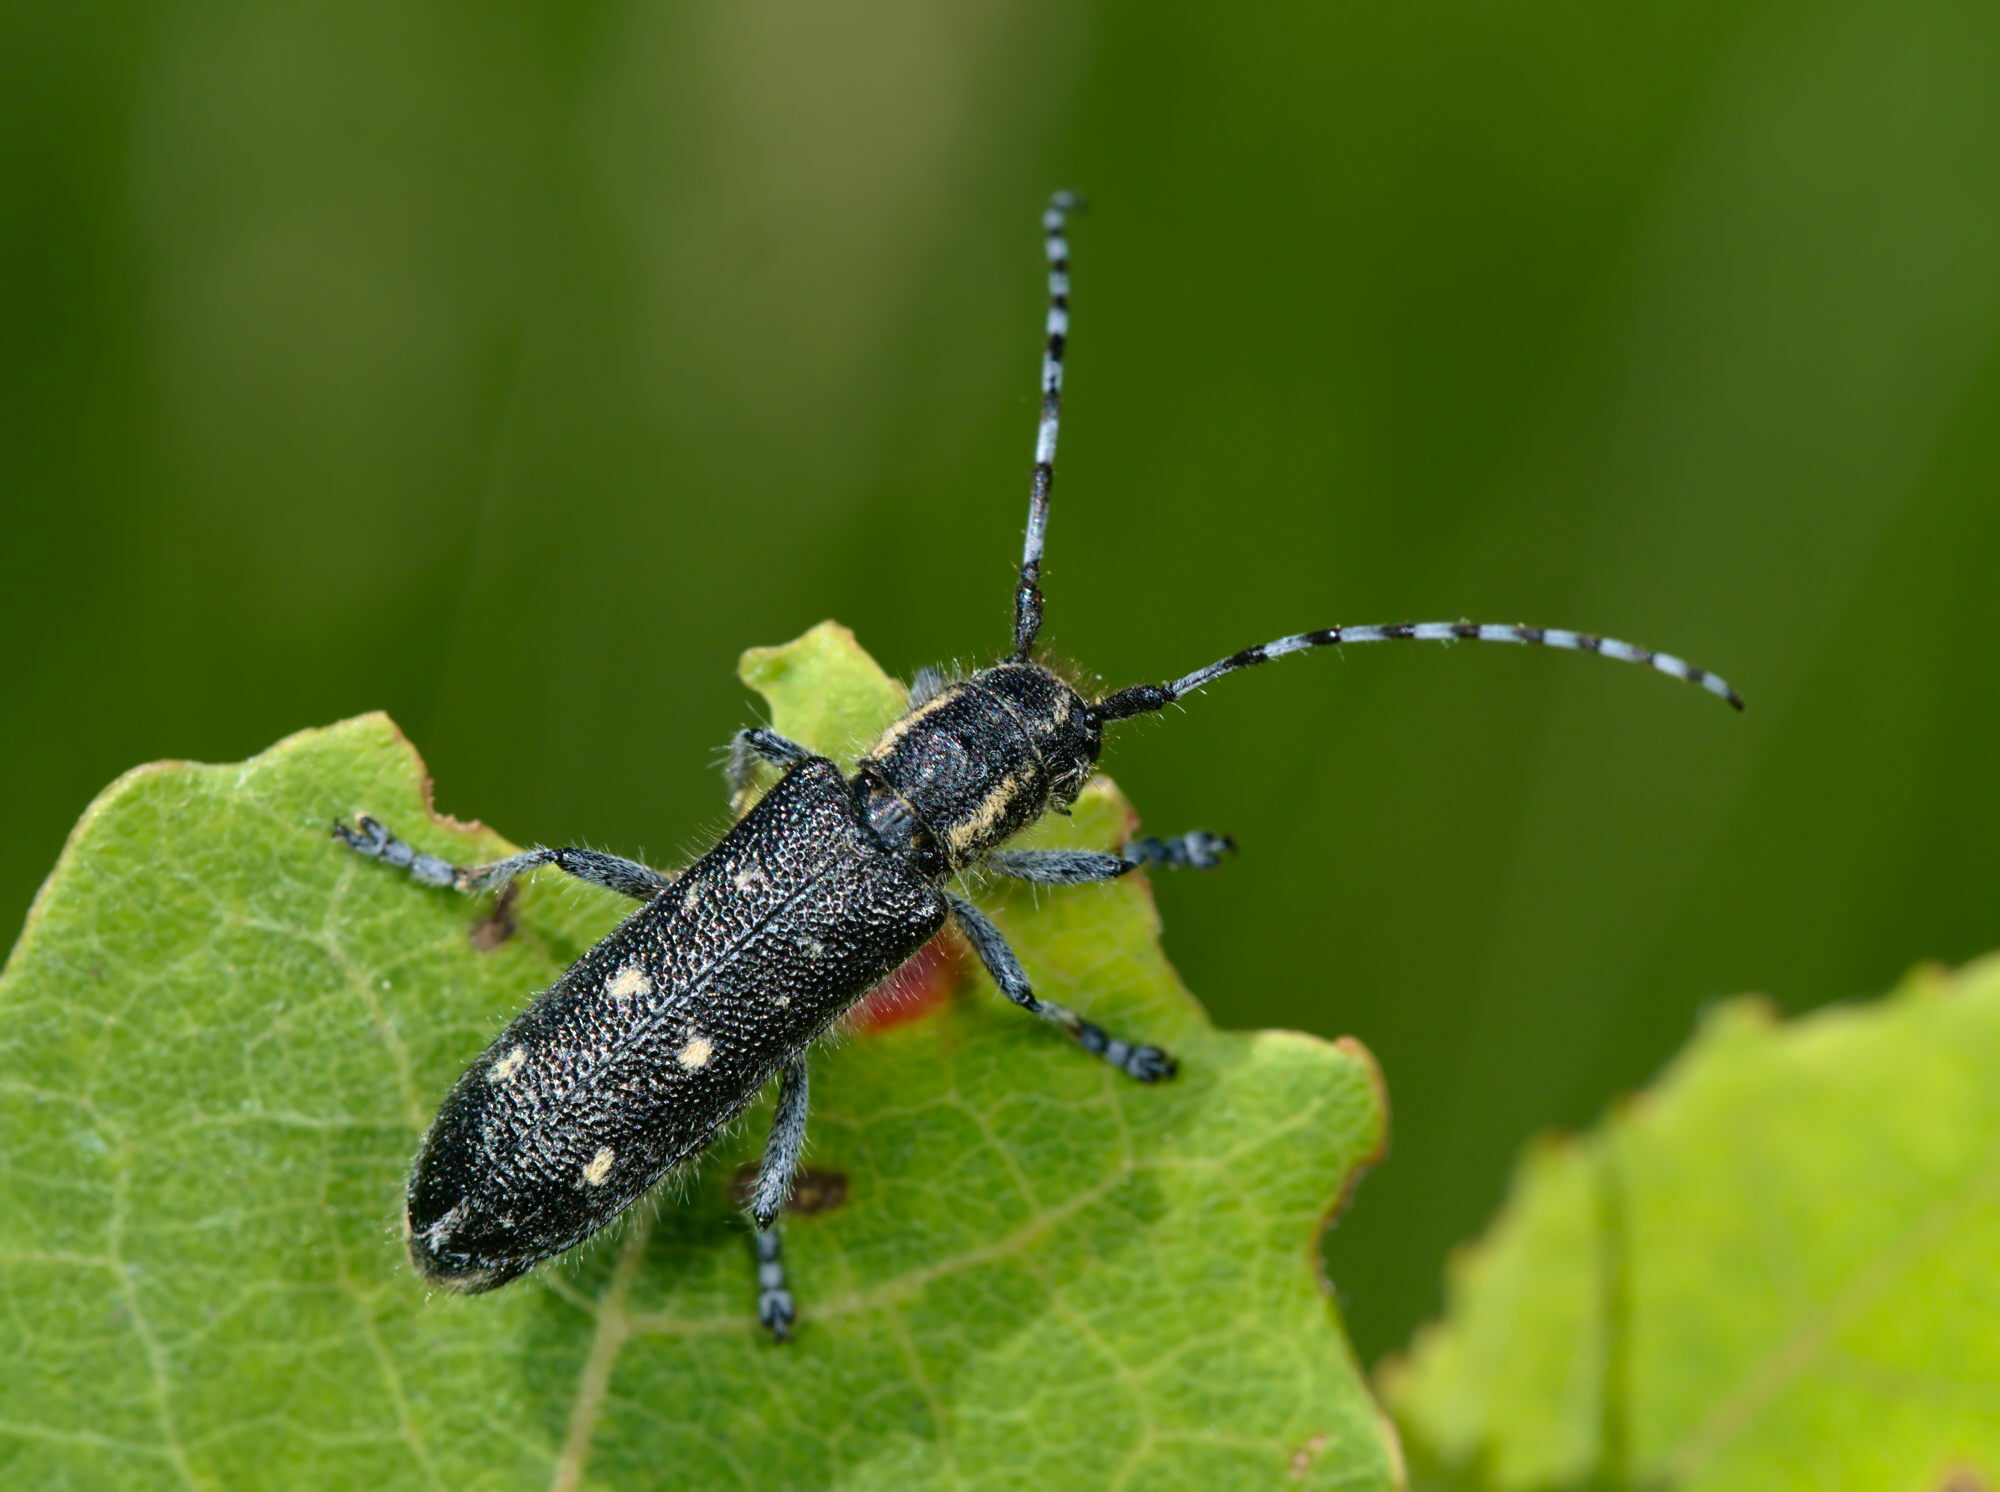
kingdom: Animalia
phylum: Arthropoda
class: Insecta
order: Coleoptera
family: Cerambycidae
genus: Saperda
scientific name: Saperda populnea
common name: Small poplar borer
